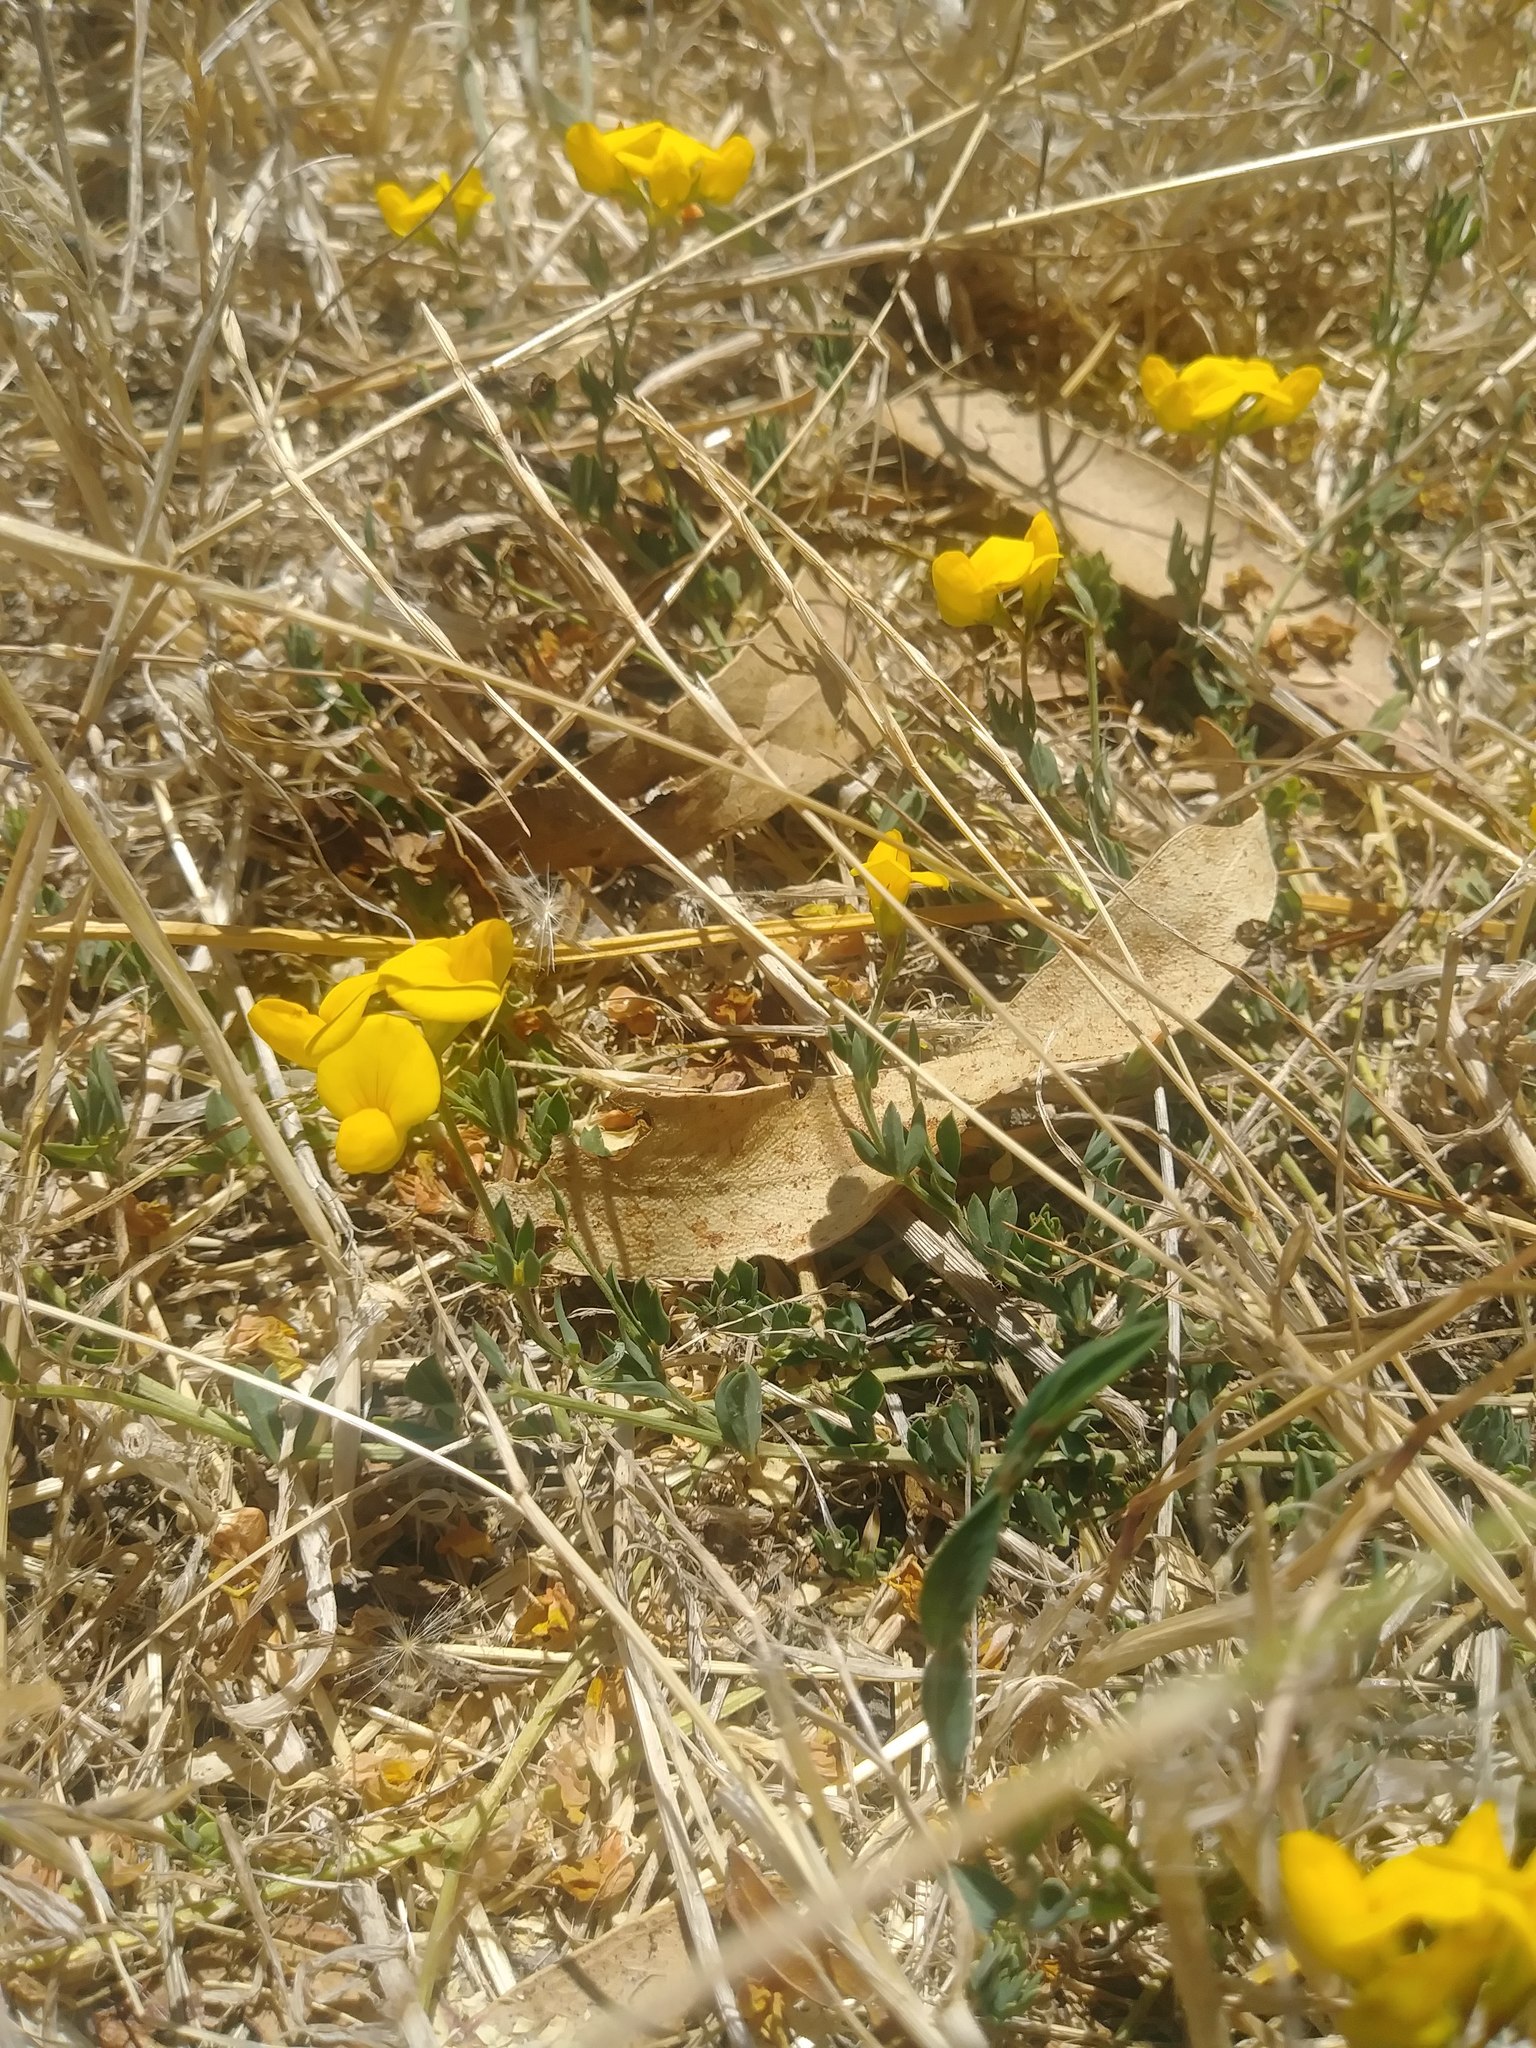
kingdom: Plantae
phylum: Tracheophyta
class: Magnoliopsida
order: Fabales
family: Fabaceae
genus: Lotus
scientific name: Lotus corniculatus
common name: Common bird's-foot-trefoil
